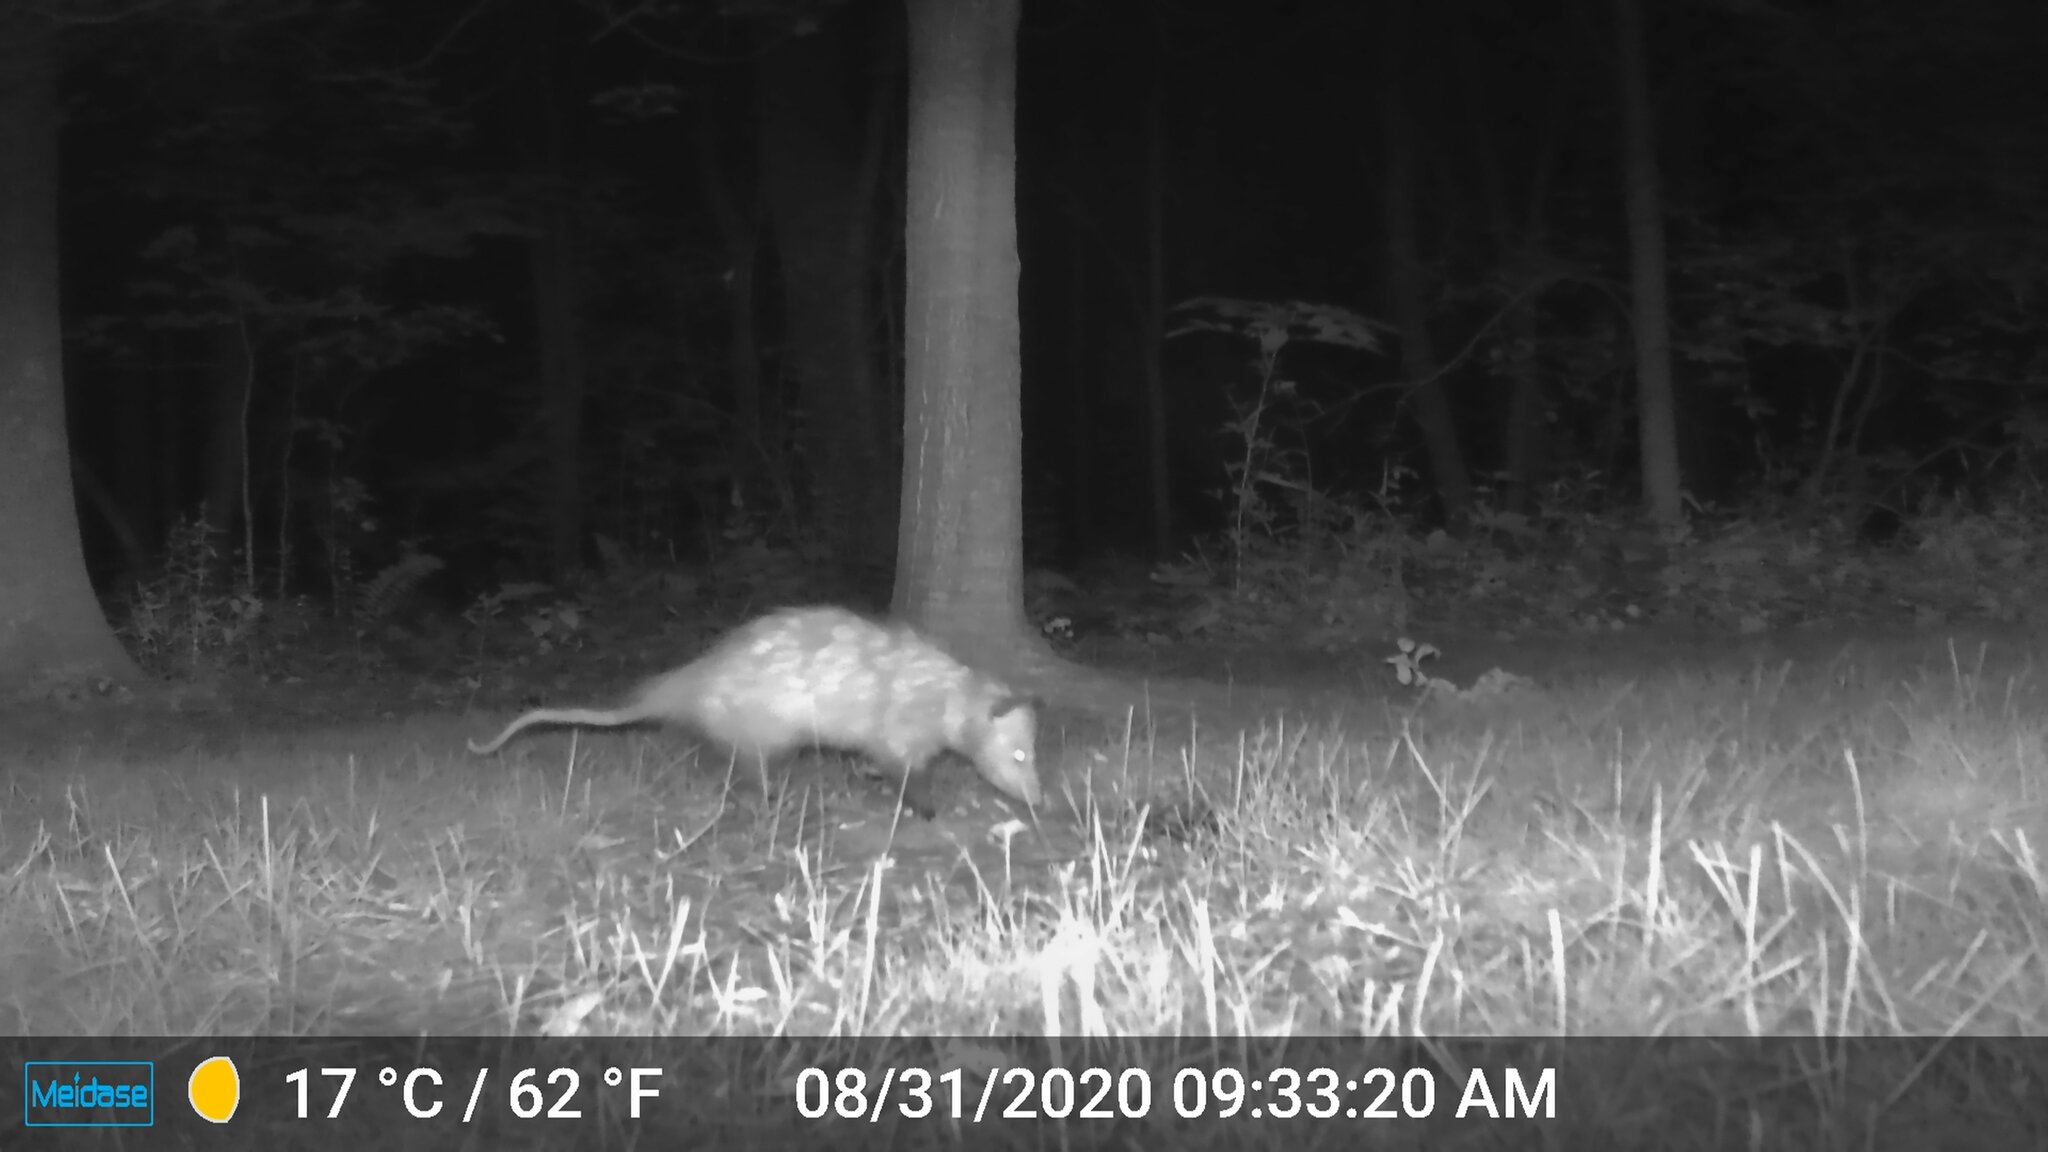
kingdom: Animalia
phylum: Chordata
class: Mammalia
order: Didelphimorphia
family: Didelphidae
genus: Didelphis
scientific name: Didelphis virginiana
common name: Virginia opossum
